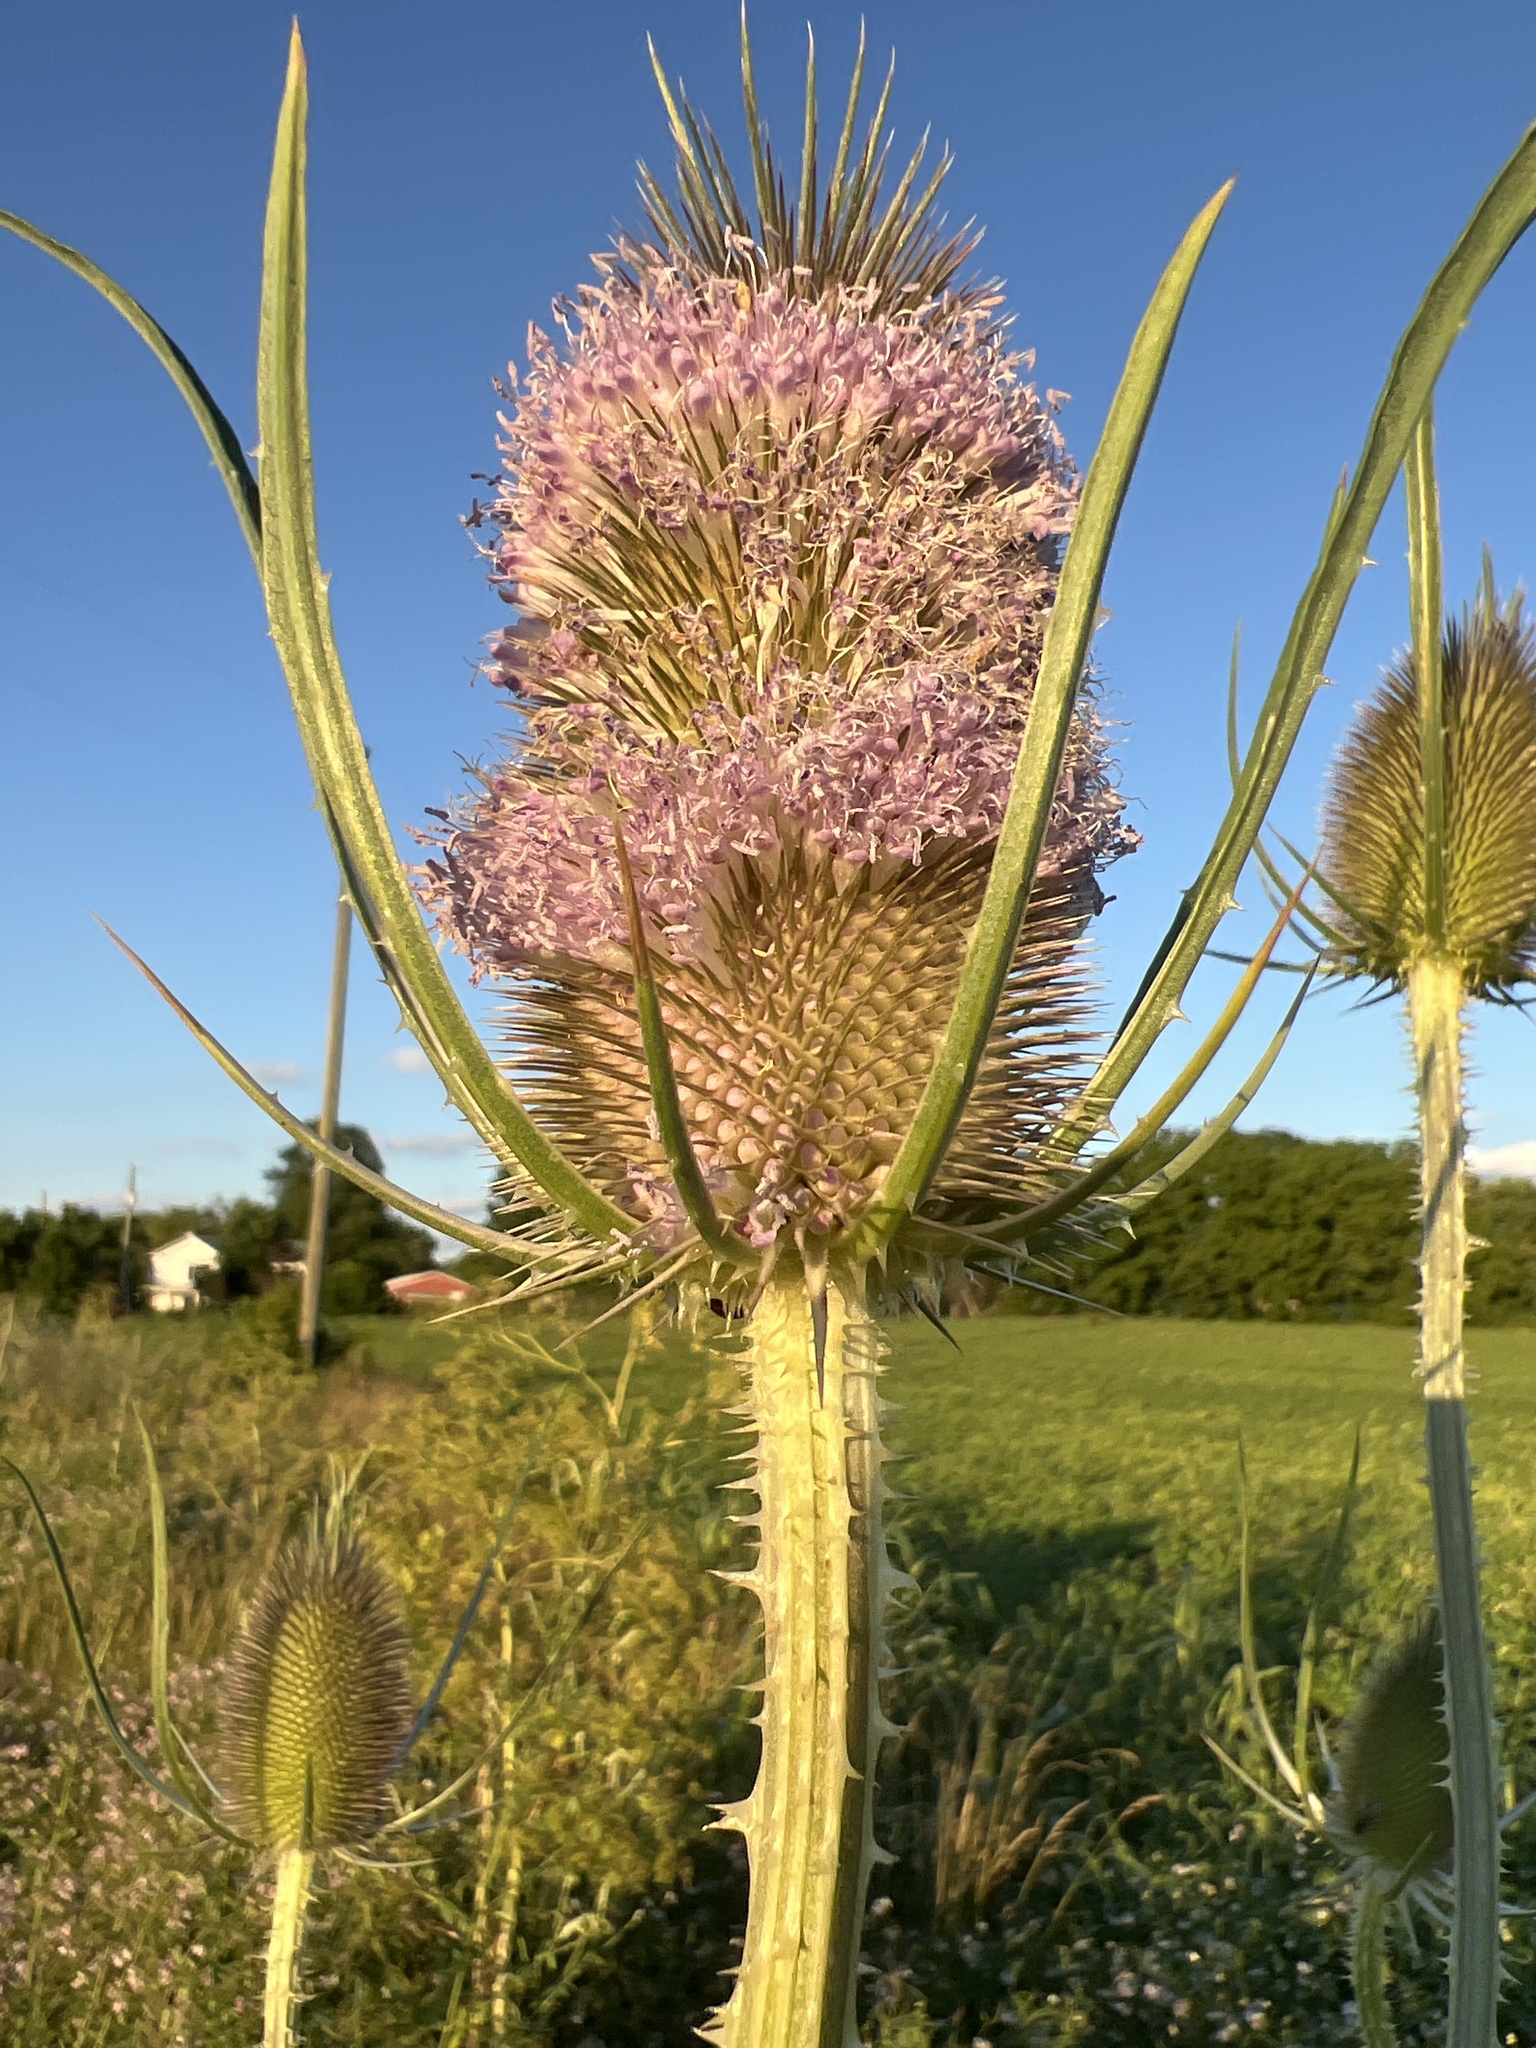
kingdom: Plantae
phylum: Tracheophyta
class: Magnoliopsida
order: Dipsacales
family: Caprifoliaceae
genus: Dipsacus
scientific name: Dipsacus fullonum
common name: Teasel
